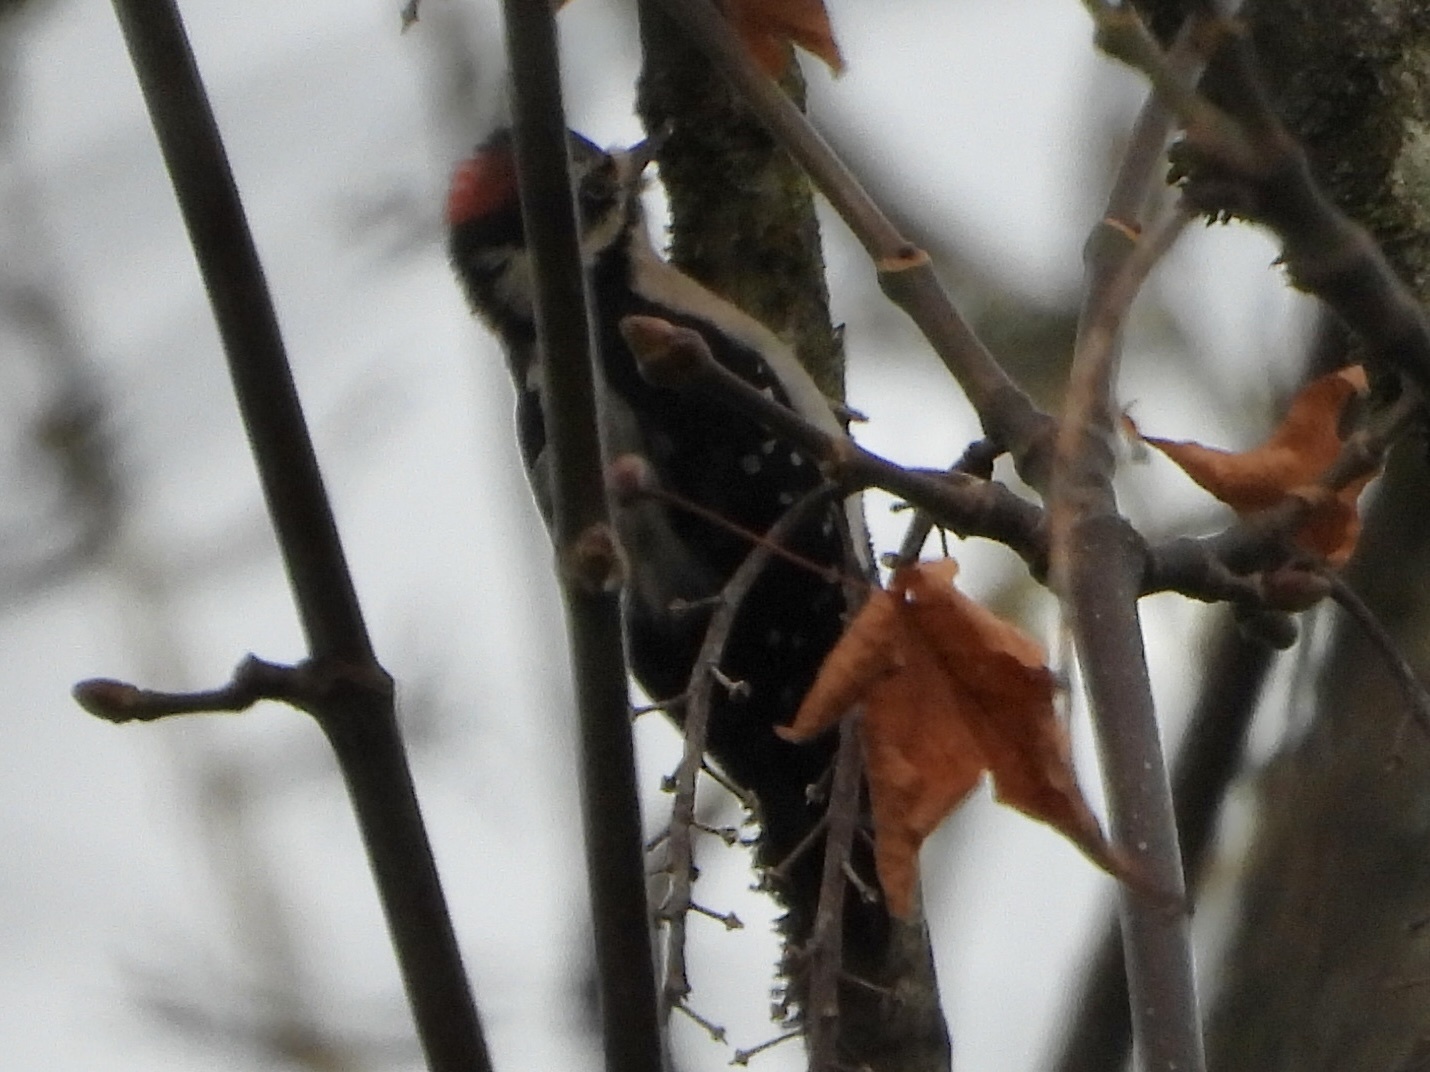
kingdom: Animalia
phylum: Chordata
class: Aves
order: Piciformes
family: Picidae
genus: Dryobates
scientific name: Dryobates pubescens
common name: Downy woodpecker
